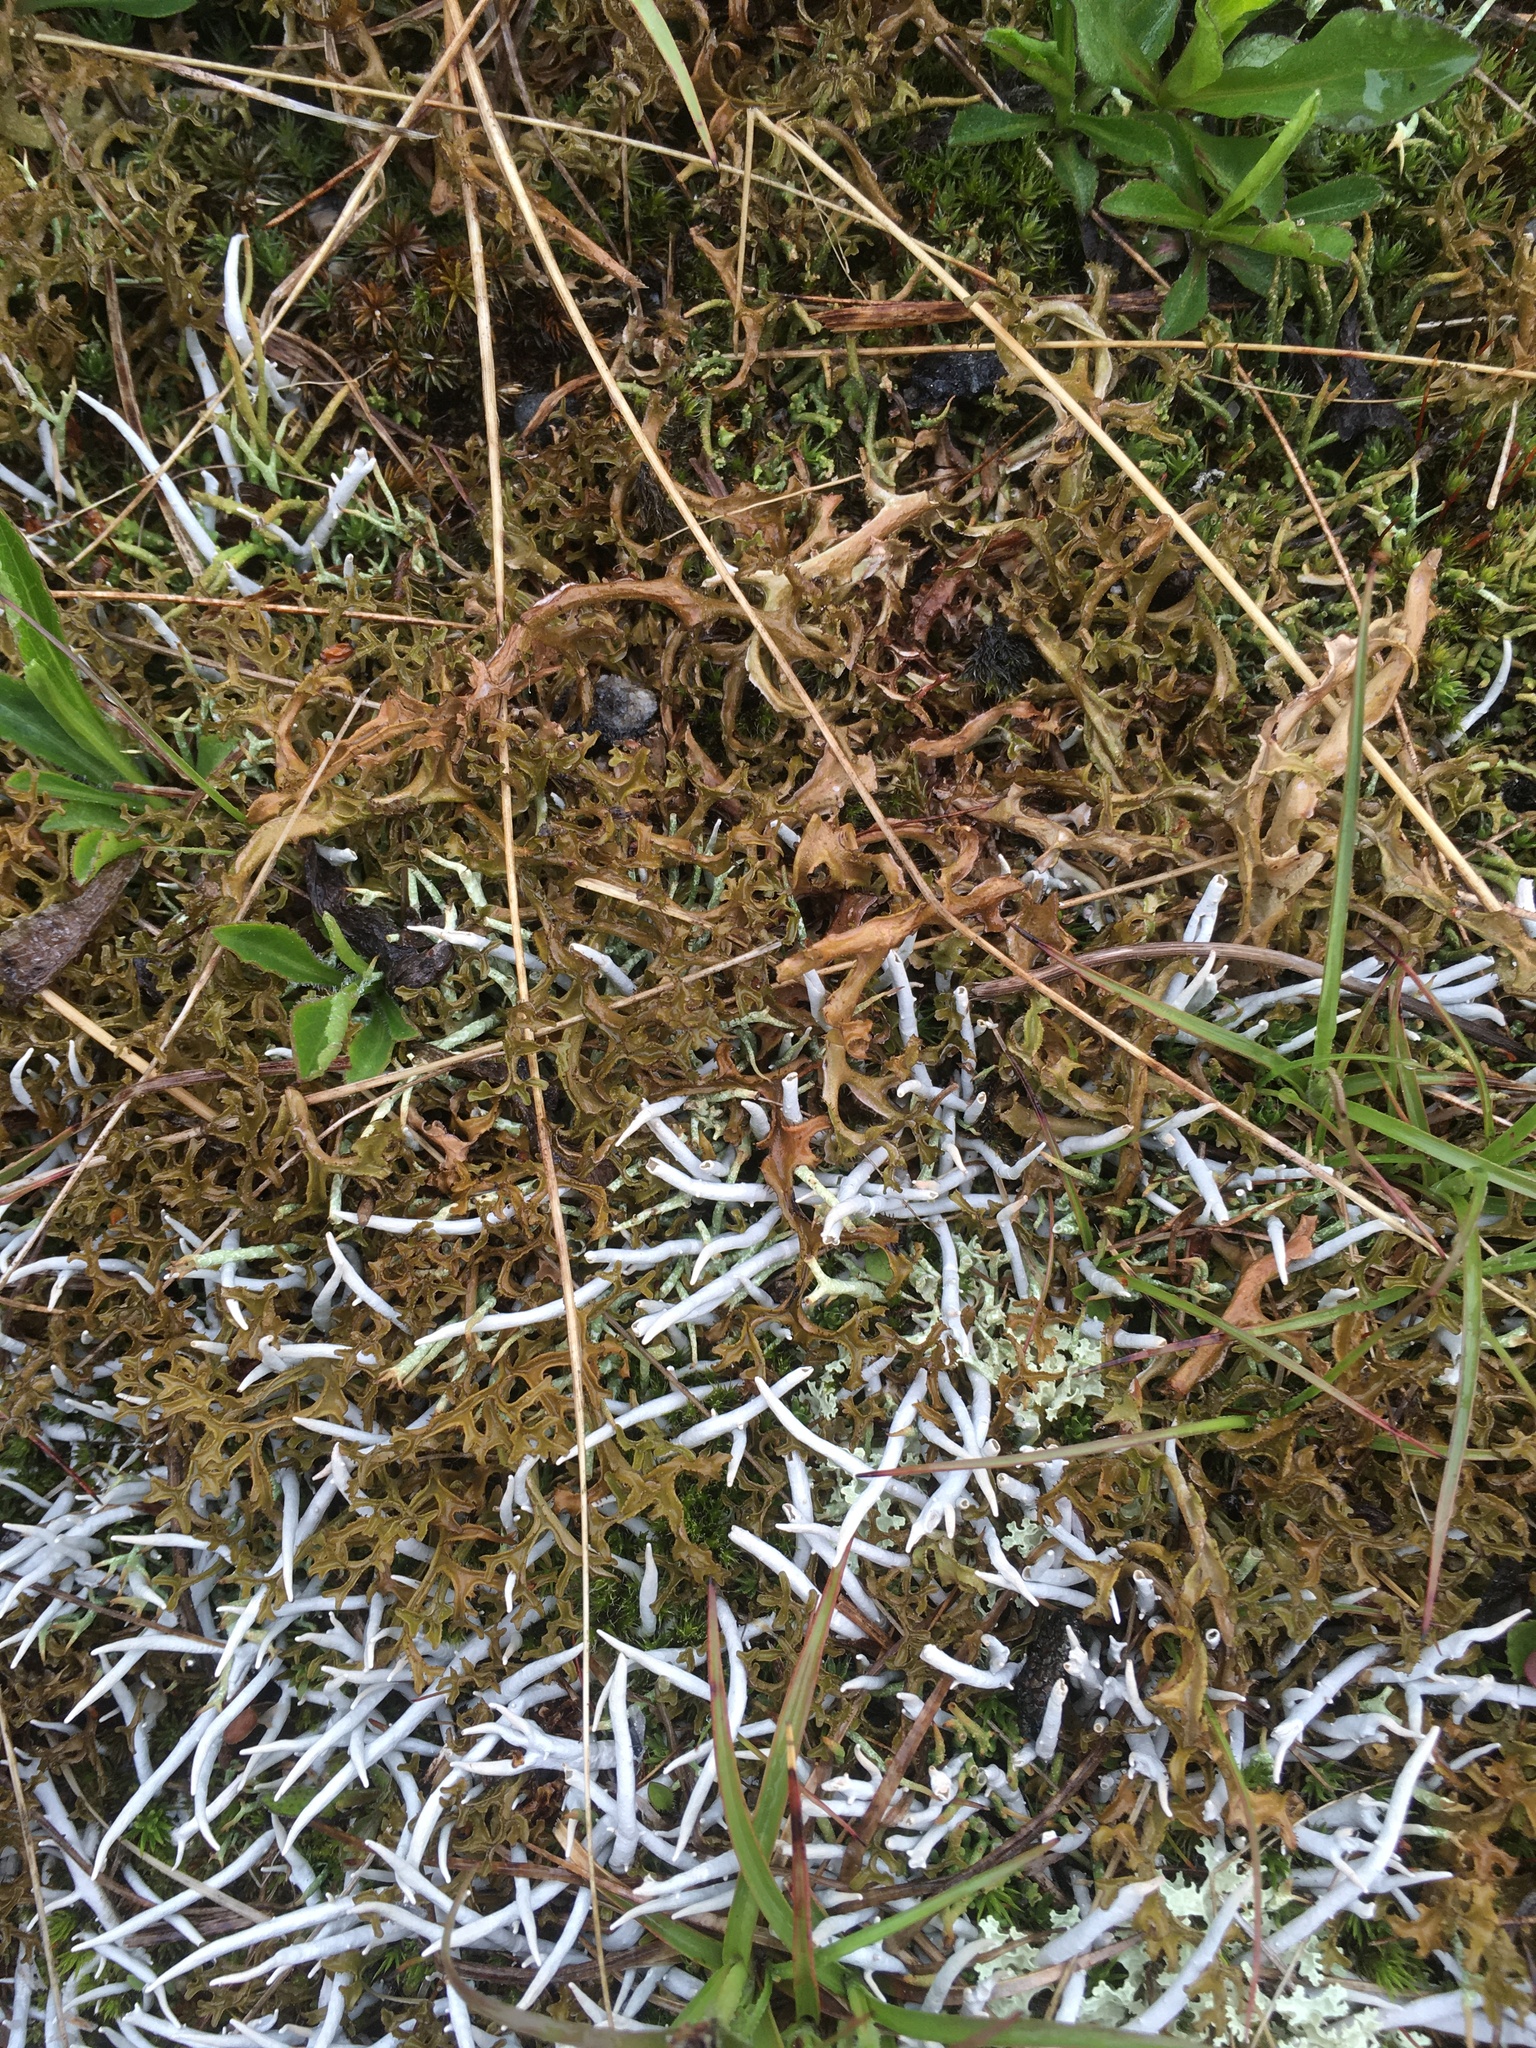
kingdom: Fungi
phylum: Ascomycota
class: Lecanoromycetes
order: Pertusariales
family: Icmadophilaceae
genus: Thamnolia
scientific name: Thamnolia vermicularis
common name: Whiteworm lichen
